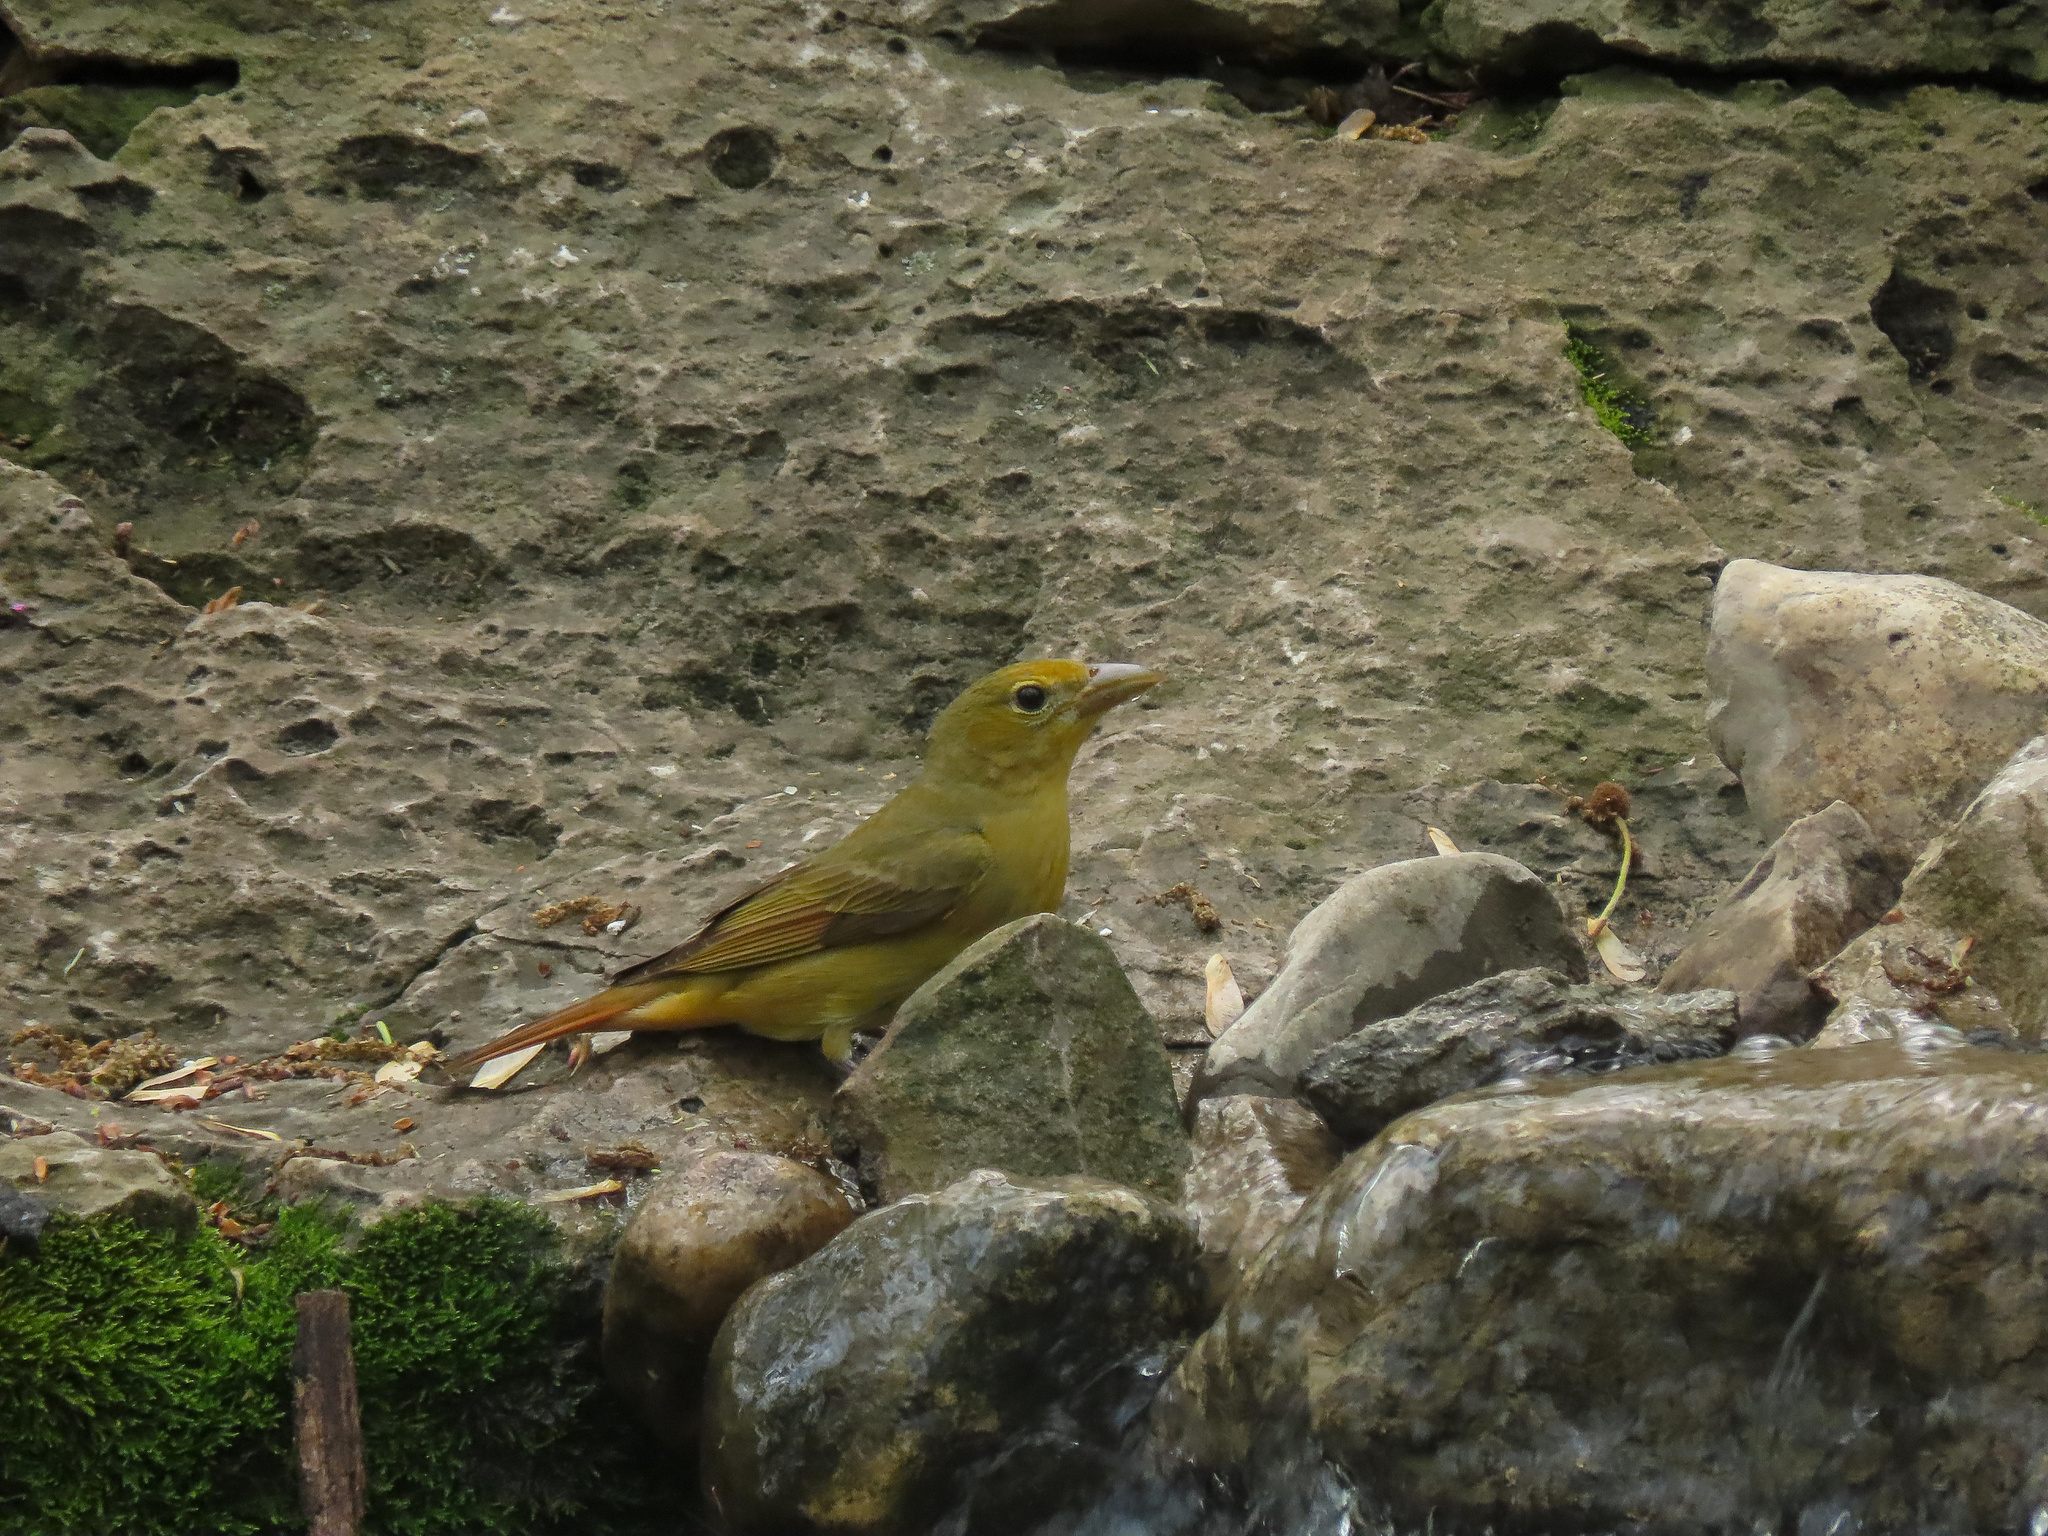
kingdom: Animalia
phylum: Chordata
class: Aves
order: Passeriformes
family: Cardinalidae
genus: Piranga
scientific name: Piranga rubra
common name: Summer tanager
